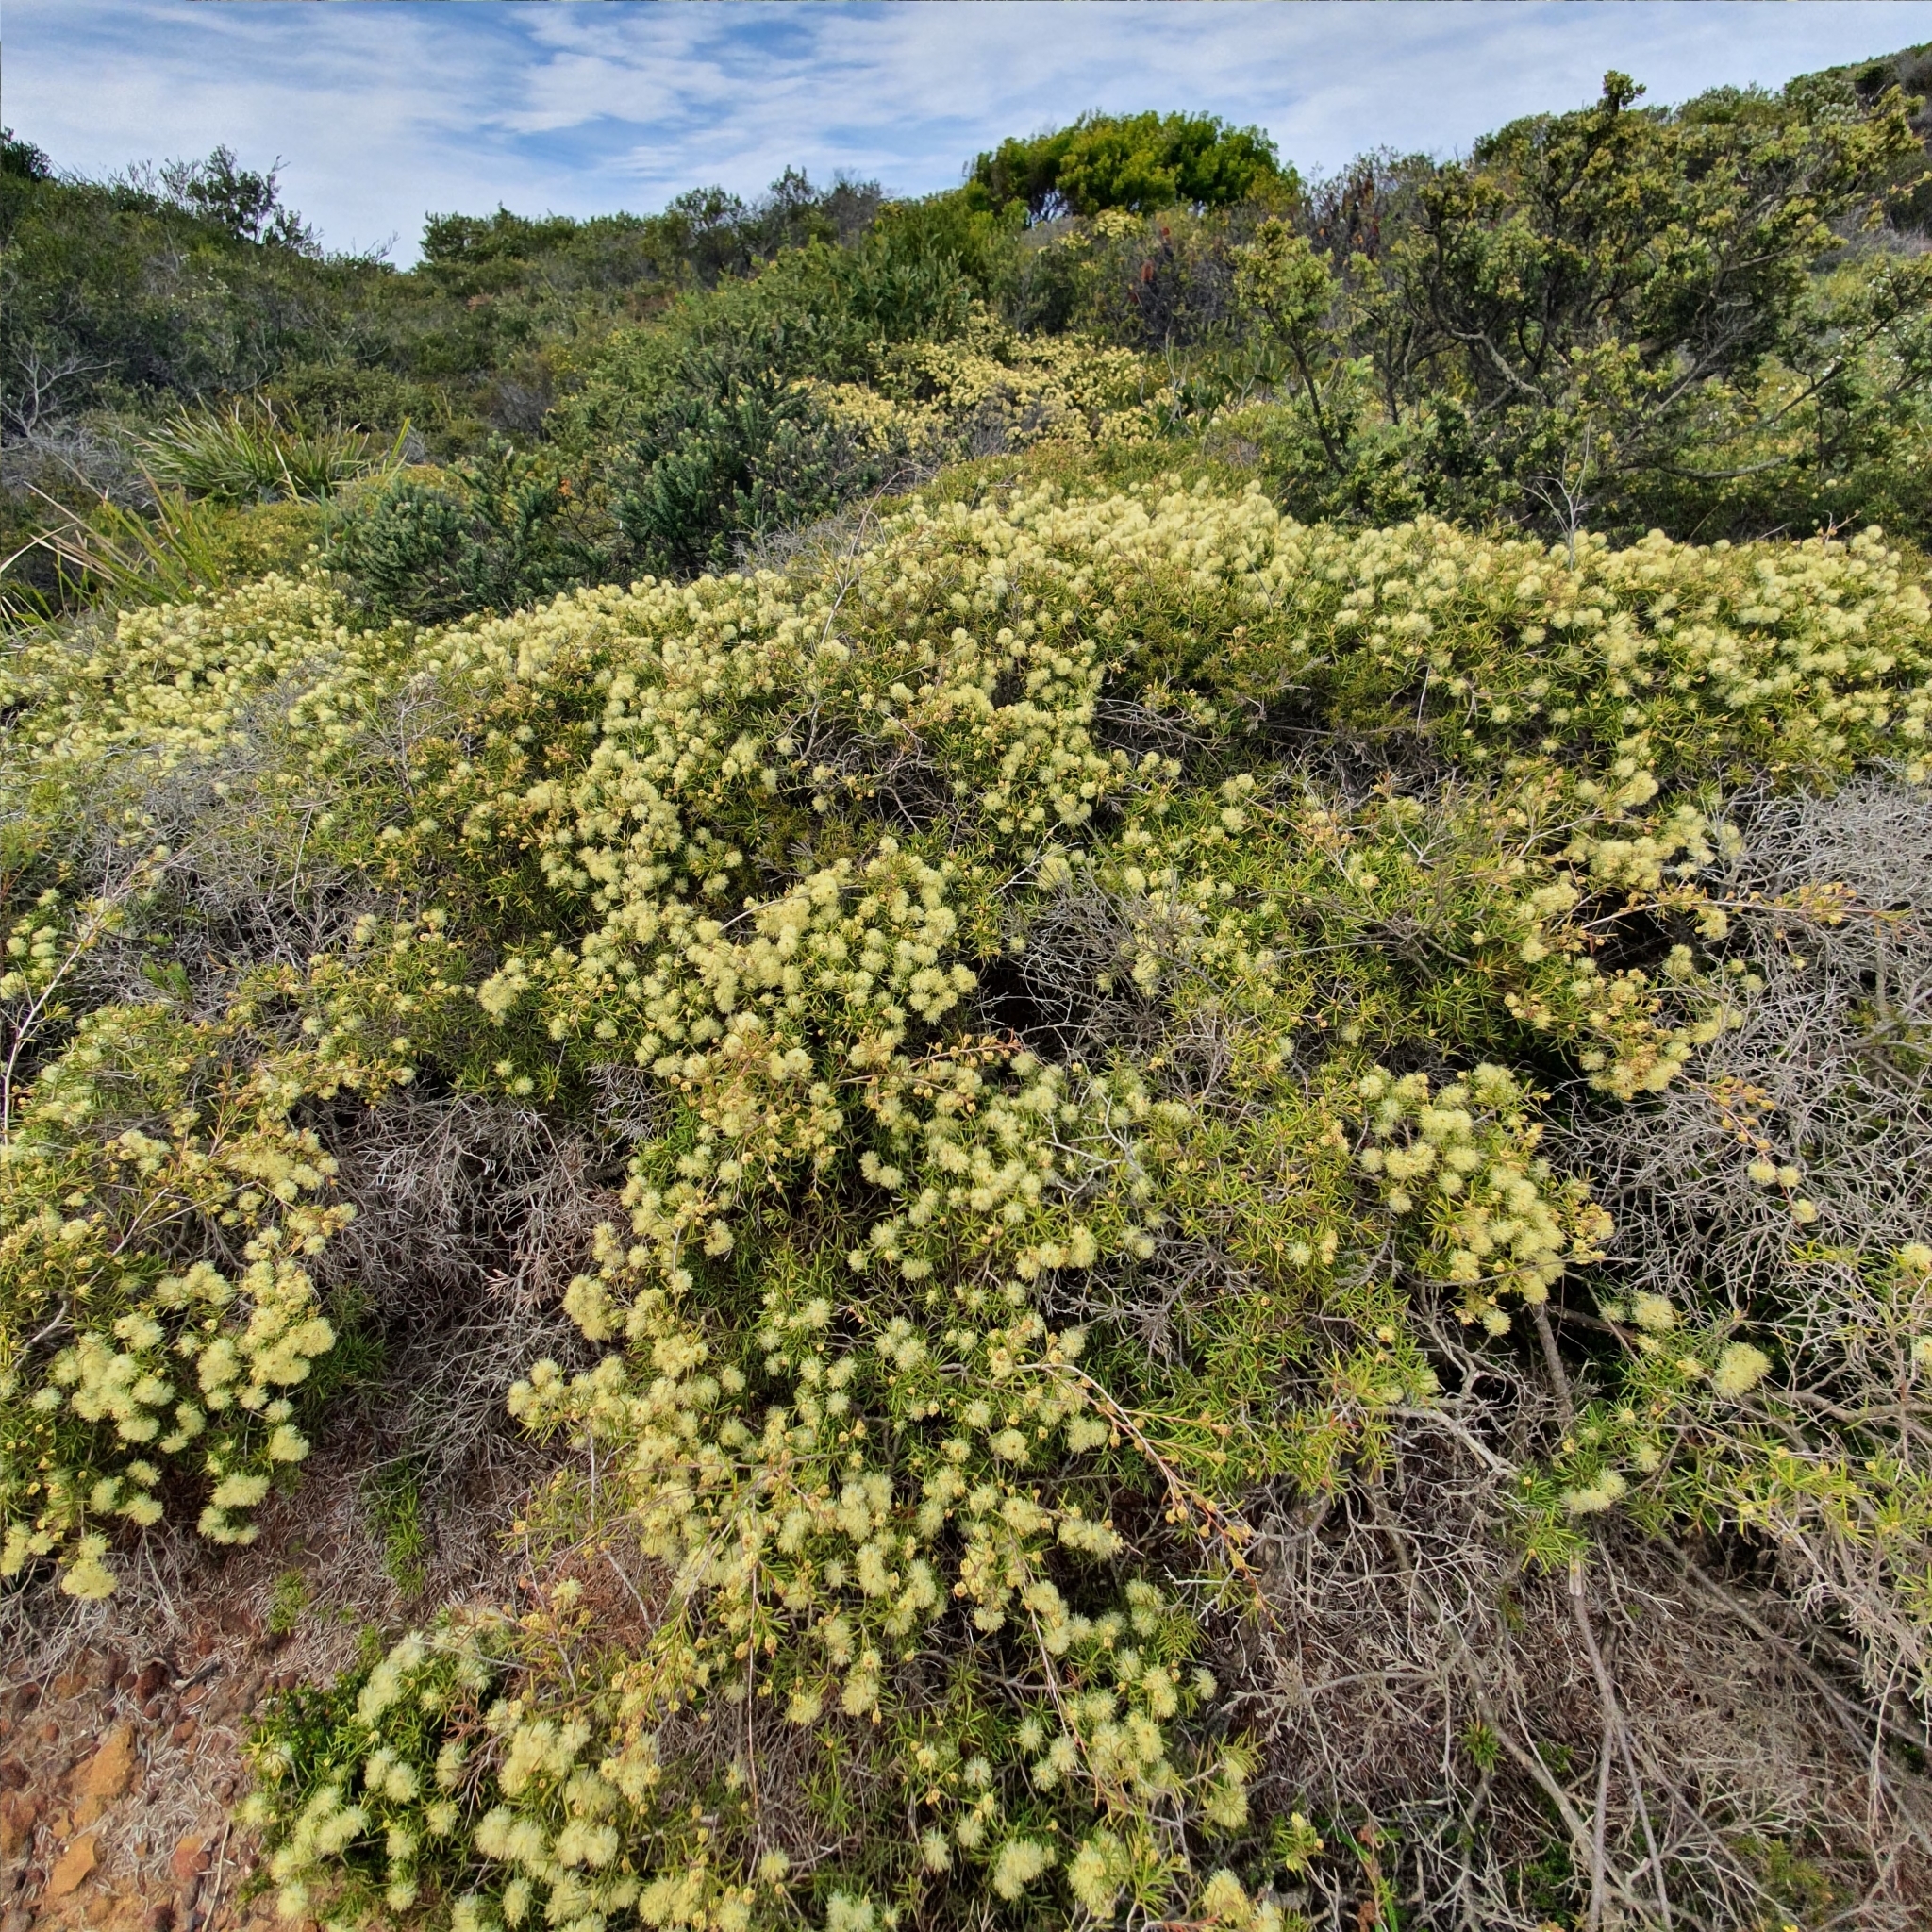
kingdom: Plantae
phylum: Tracheophyta
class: Magnoliopsida
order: Myrtales
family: Myrtaceae
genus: Melaleuca
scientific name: Melaleuca nodosa
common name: Prickly-leaf paperbark
